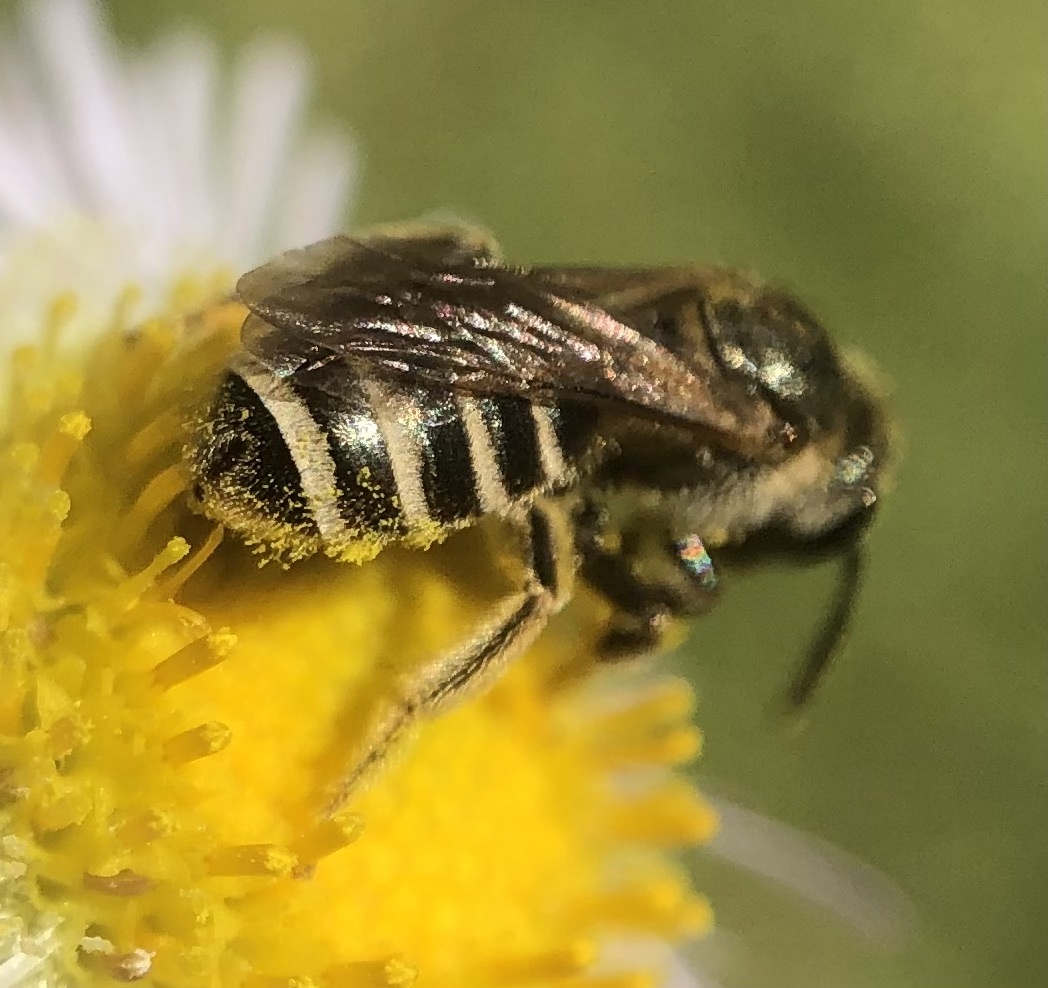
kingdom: Animalia
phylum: Arthropoda
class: Insecta
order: Hymenoptera
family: Halictidae
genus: Halictus
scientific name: Halictus confusus
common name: Southern bronze furrow bee
